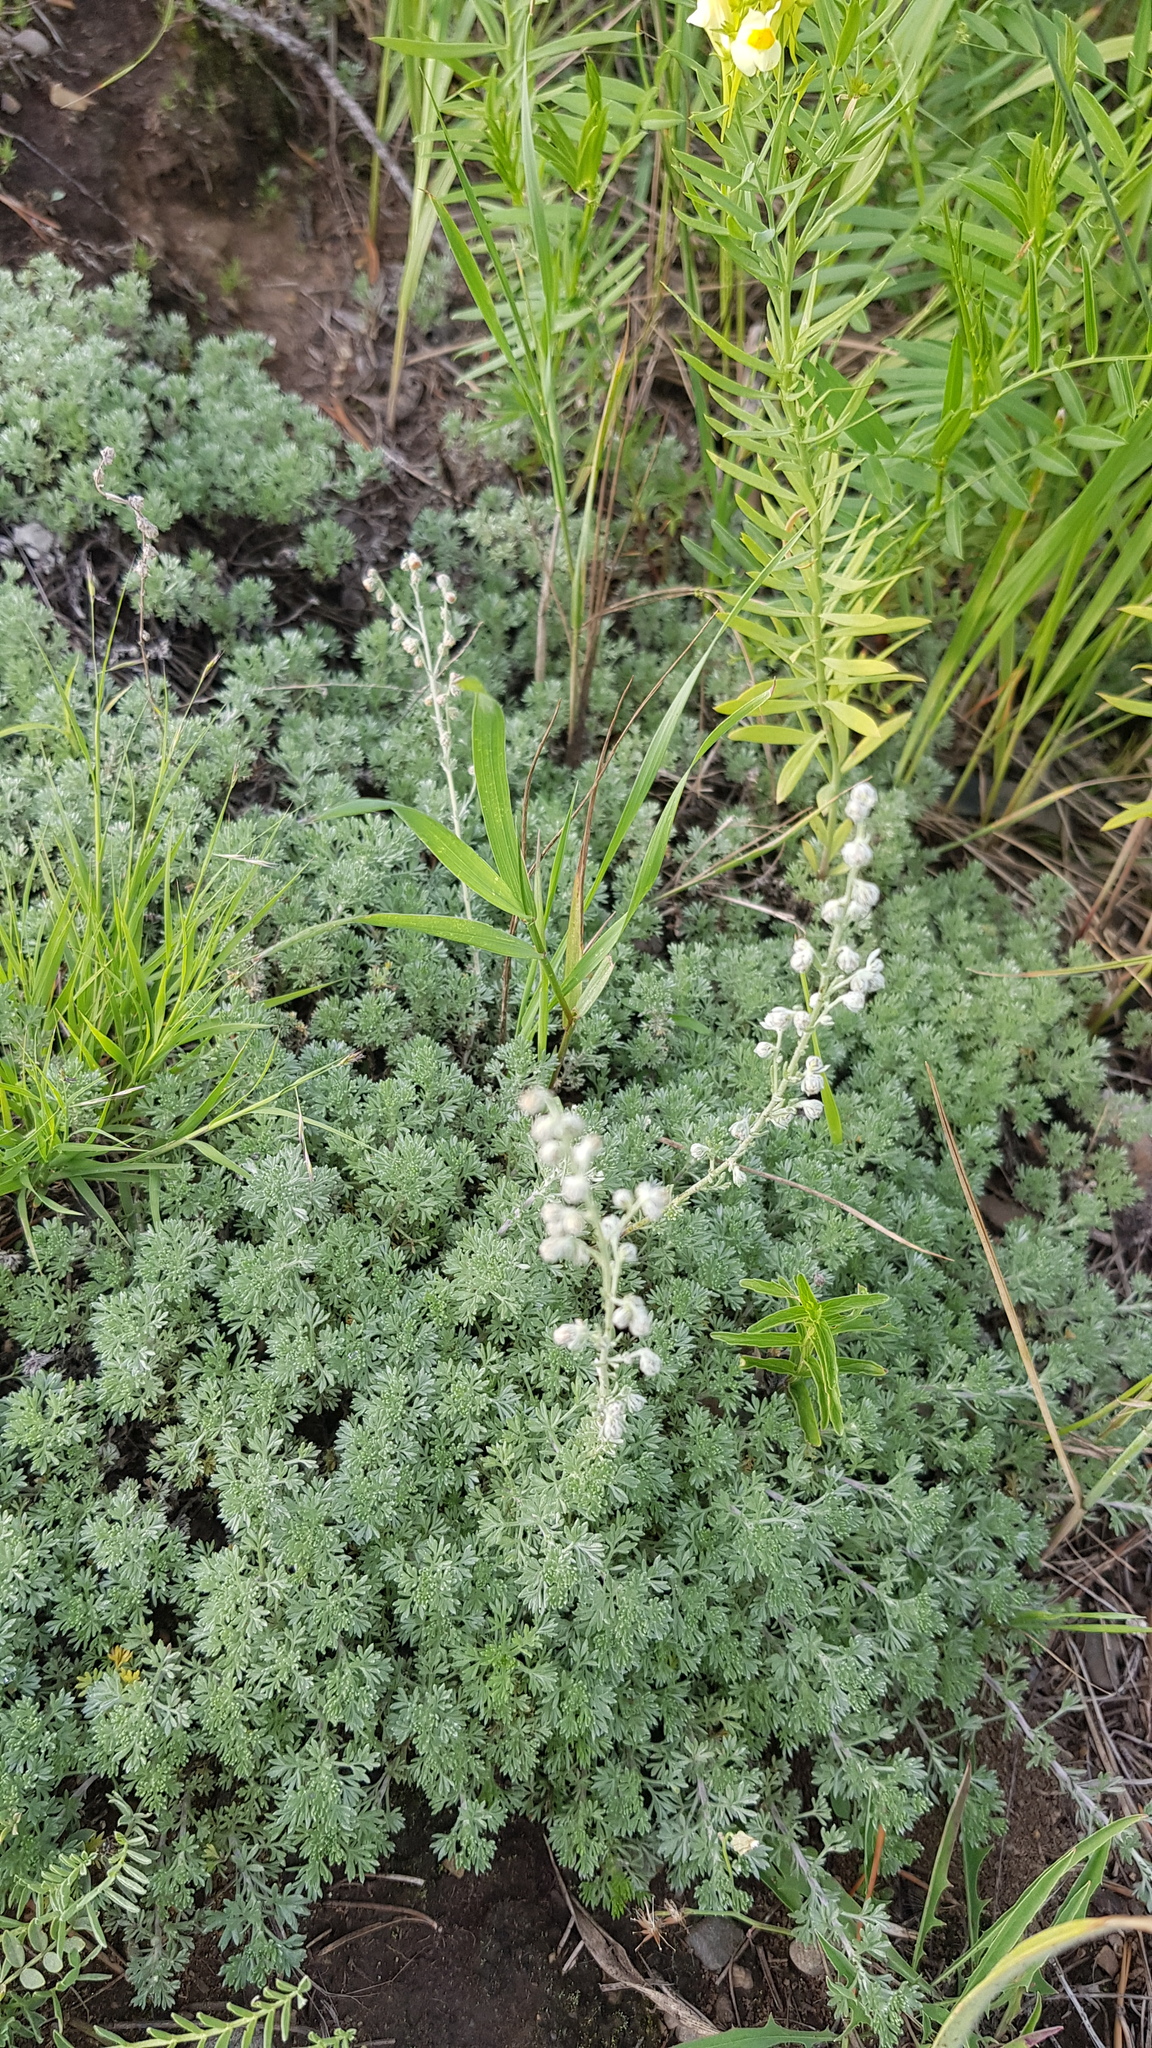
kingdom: Plantae
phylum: Tracheophyta
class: Magnoliopsida
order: Asterales
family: Asteraceae
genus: Artemisia
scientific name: Artemisia frigida
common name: Prairie sagewort
